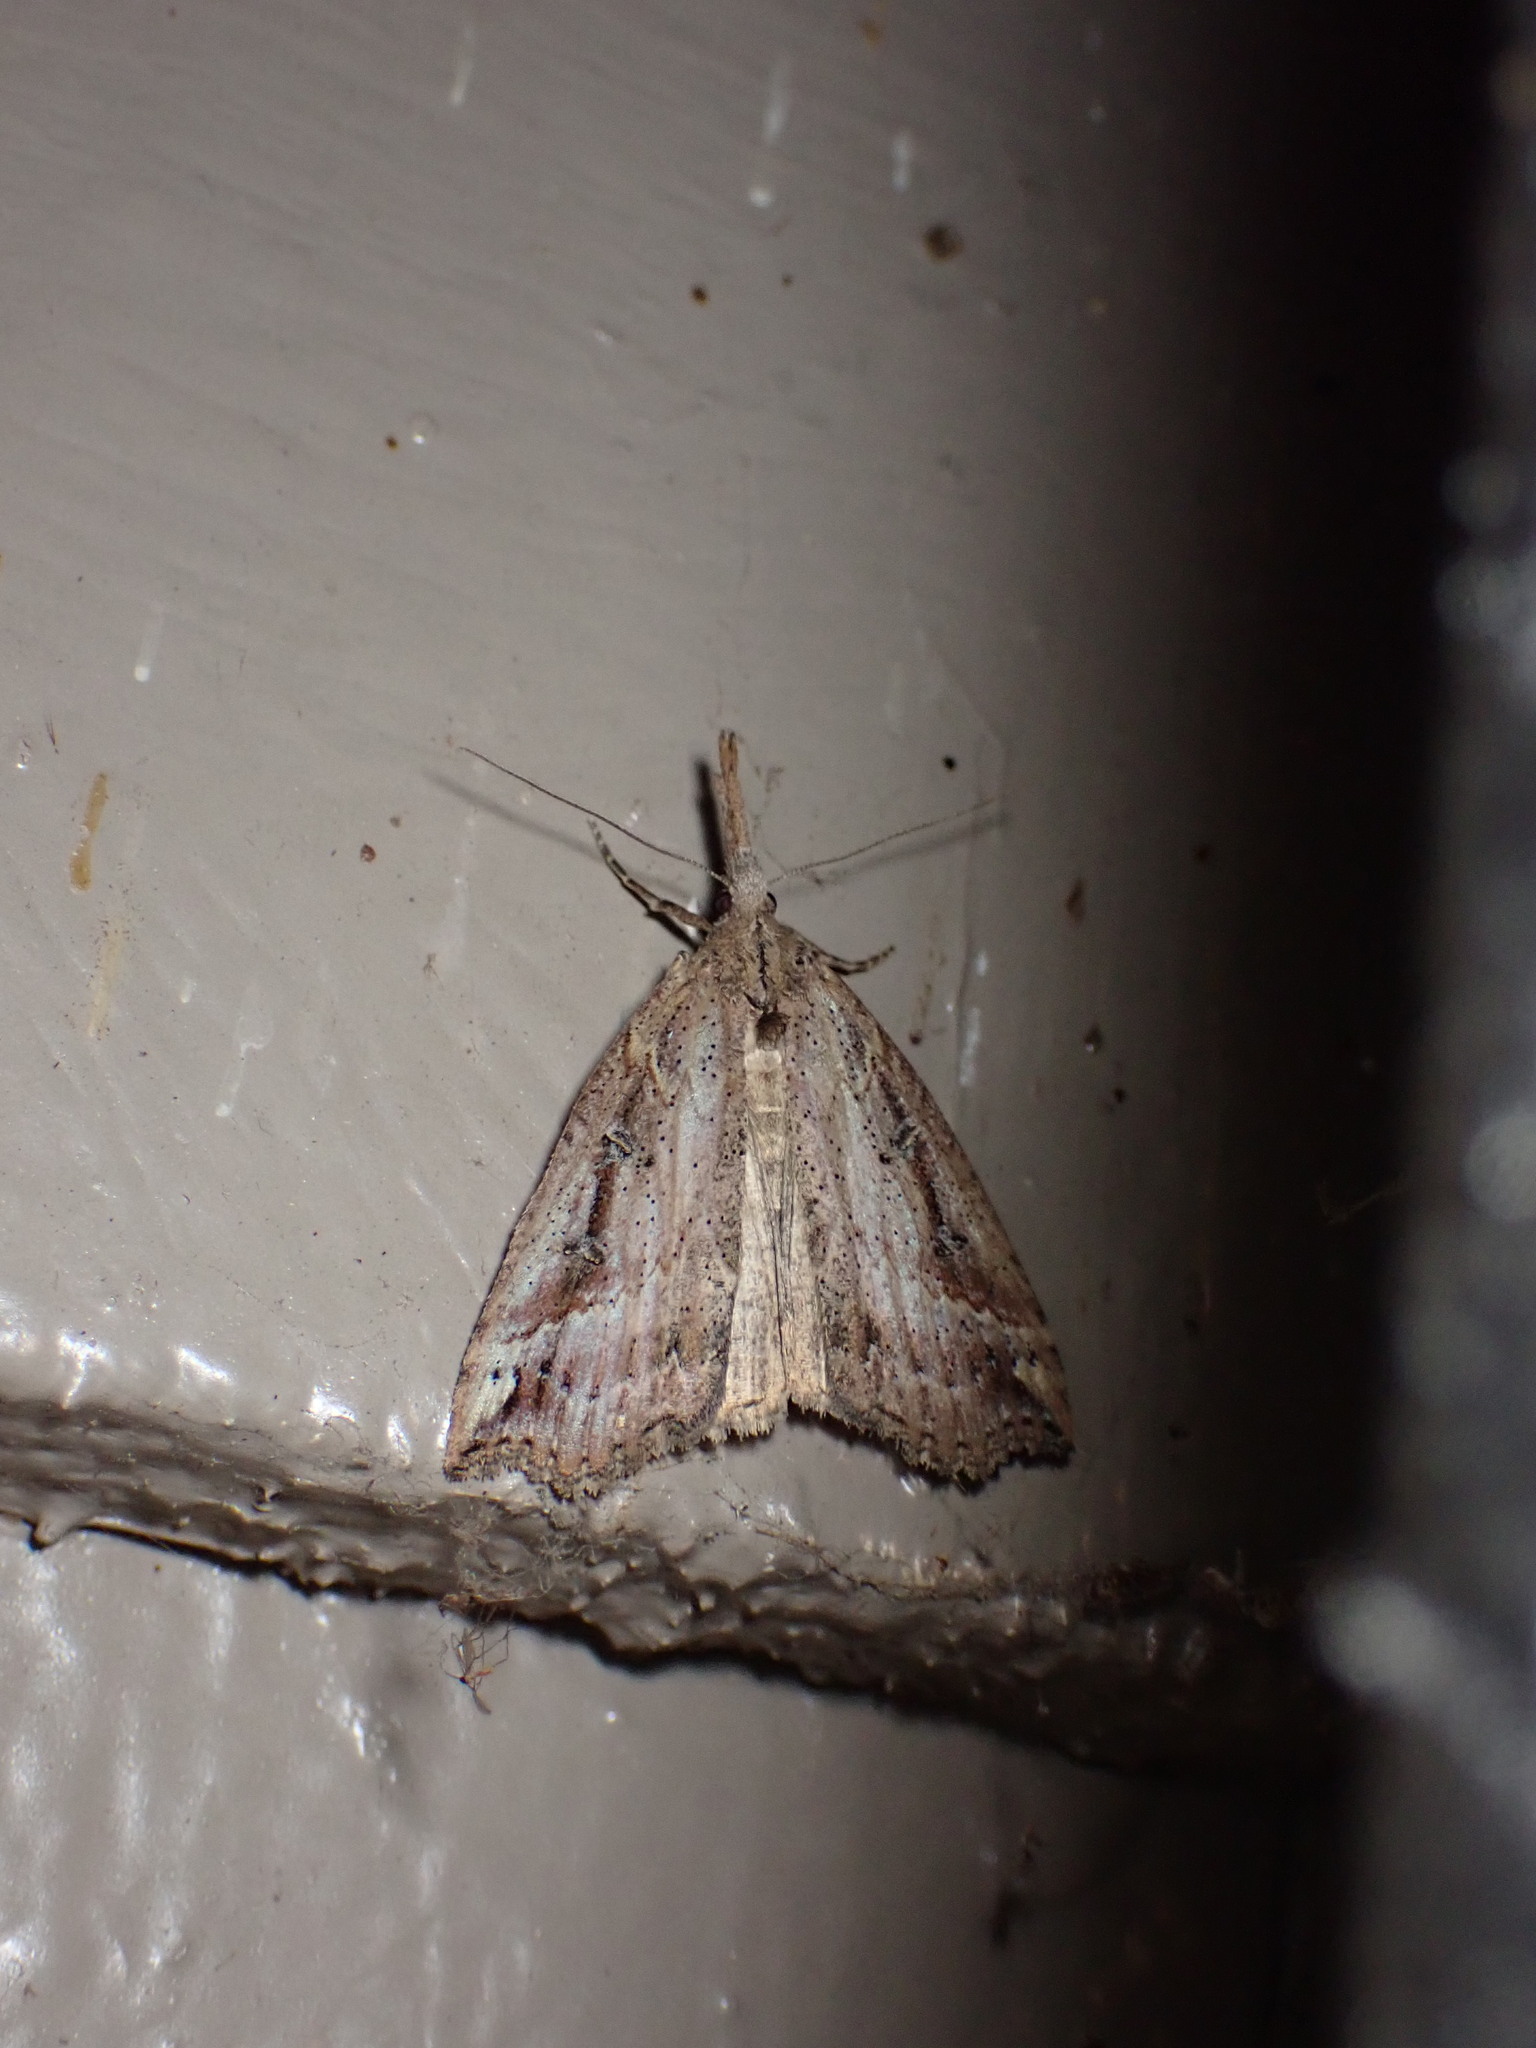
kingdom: Animalia
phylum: Arthropoda
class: Insecta
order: Lepidoptera
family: Erebidae
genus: Hypena
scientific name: Hypena californica
